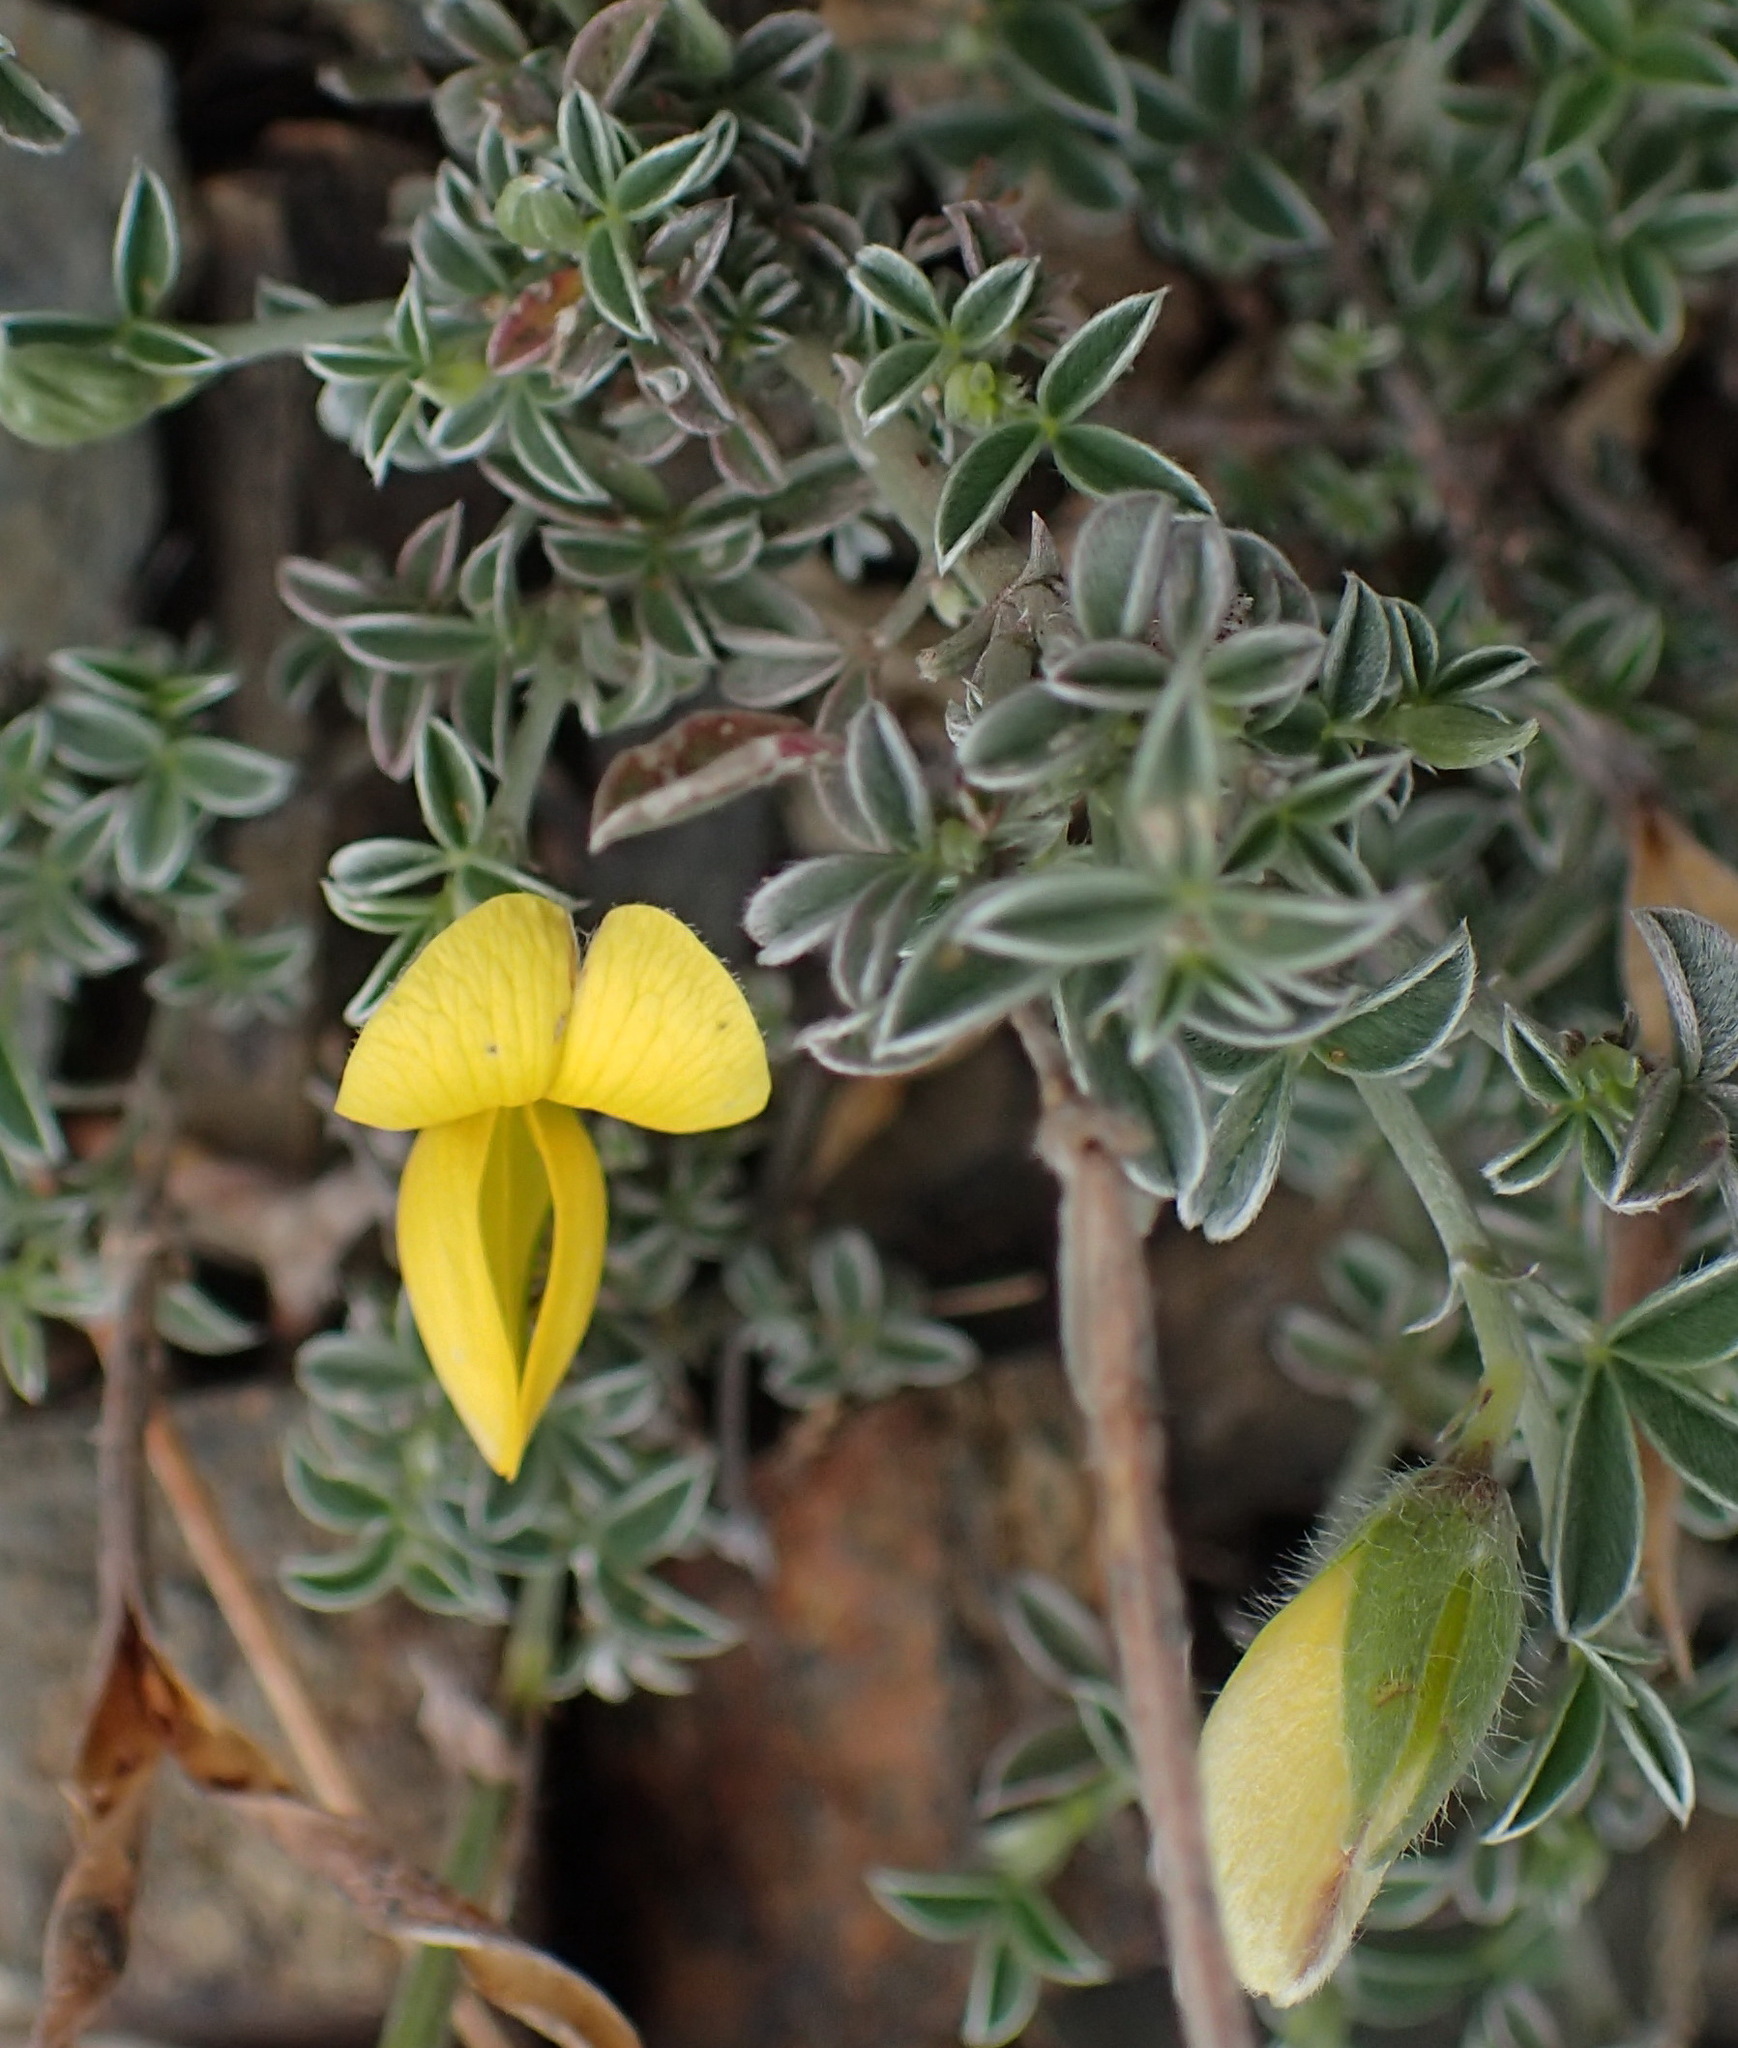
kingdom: Plantae
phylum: Tracheophyta
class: Magnoliopsida
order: Fabales
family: Fabaceae
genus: Argyrolobium
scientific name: Argyrolobium argenteum
